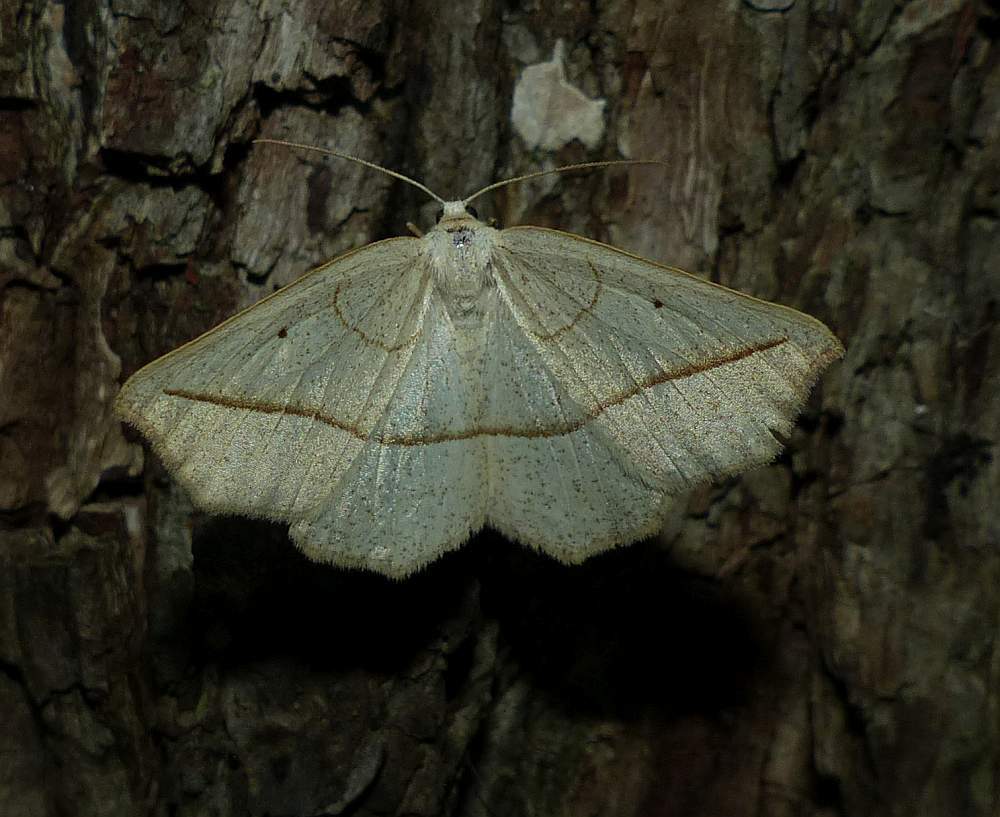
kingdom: Animalia
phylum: Arthropoda
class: Insecta
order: Lepidoptera
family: Geometridae
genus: Eusarca
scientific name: Eusarca confusaria
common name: Confused eusarca
